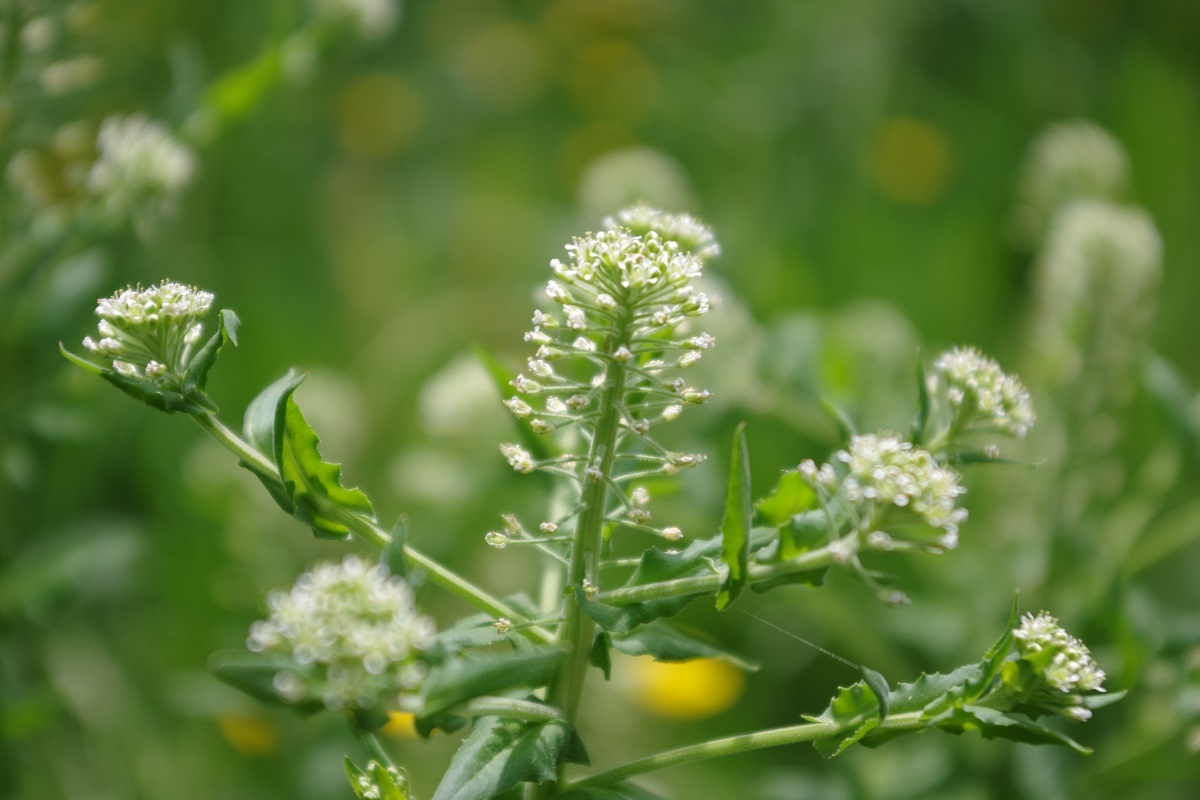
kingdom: Plantae
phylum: Tracheophyta
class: Magnoliopsida
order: Brassicales
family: Brassicaceae
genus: Lepidium
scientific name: Lepidium campestre
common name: Field pepperwort
